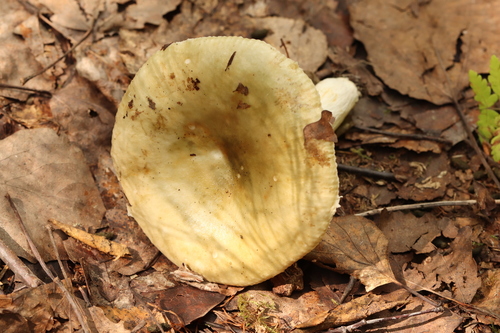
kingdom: Fungi
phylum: Basidiomycota
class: Agaricomycetes
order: Russulales
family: Russulaceae
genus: Russula
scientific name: Russula
